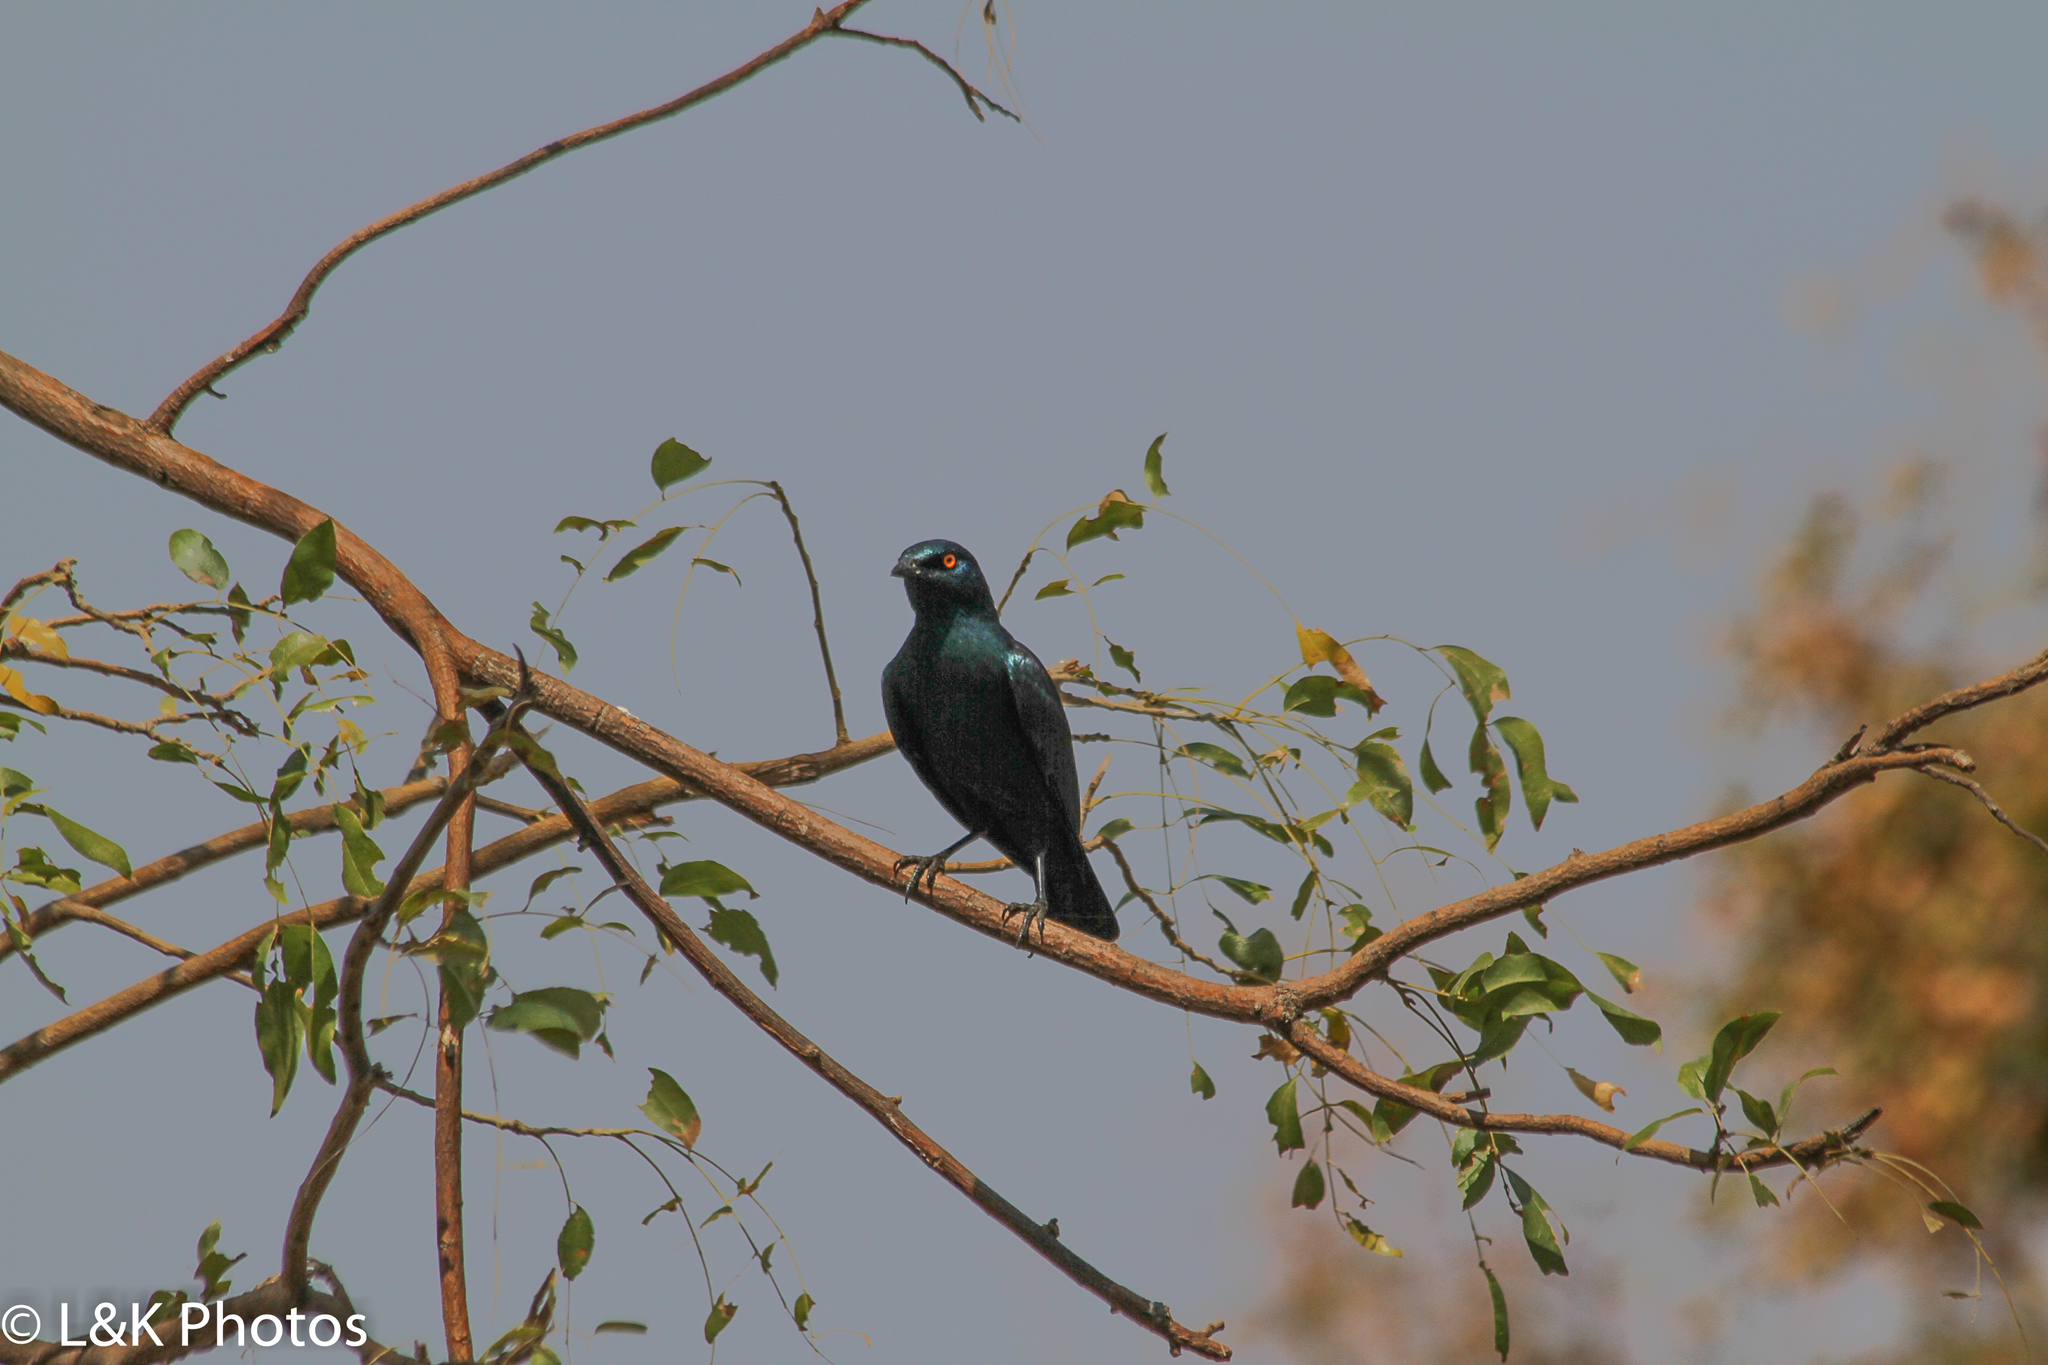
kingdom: Animalia
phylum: Chordata
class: Aves
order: Passeriformes
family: Sturnidae
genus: Lamprotornis
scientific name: Lamprotornis nitens
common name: Cape starling
